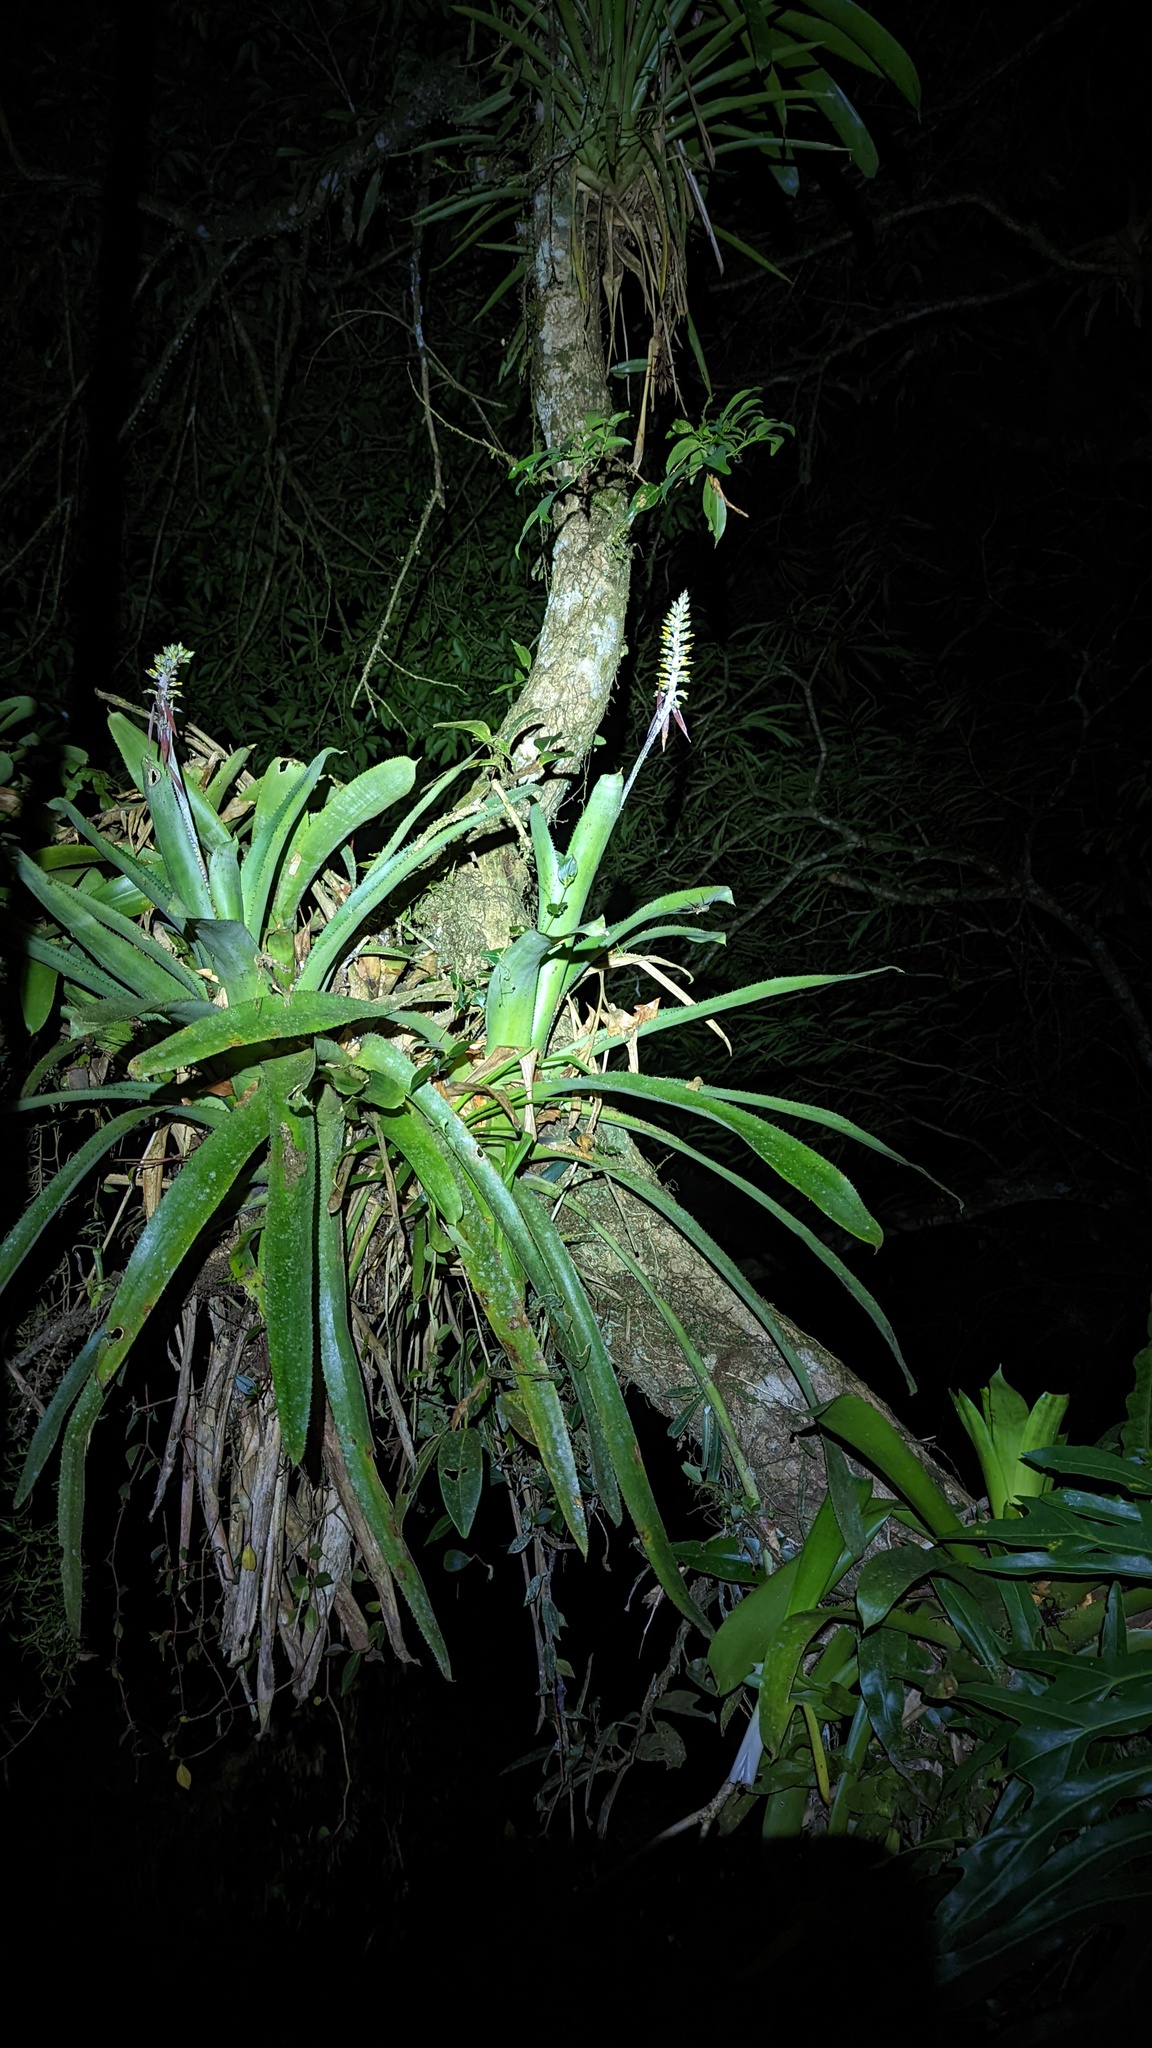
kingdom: Plantae
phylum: Tracheophyta
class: Liliopsida
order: Poales
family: Bromeliaceae
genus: Aechmea
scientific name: Aechmea angustifolia
